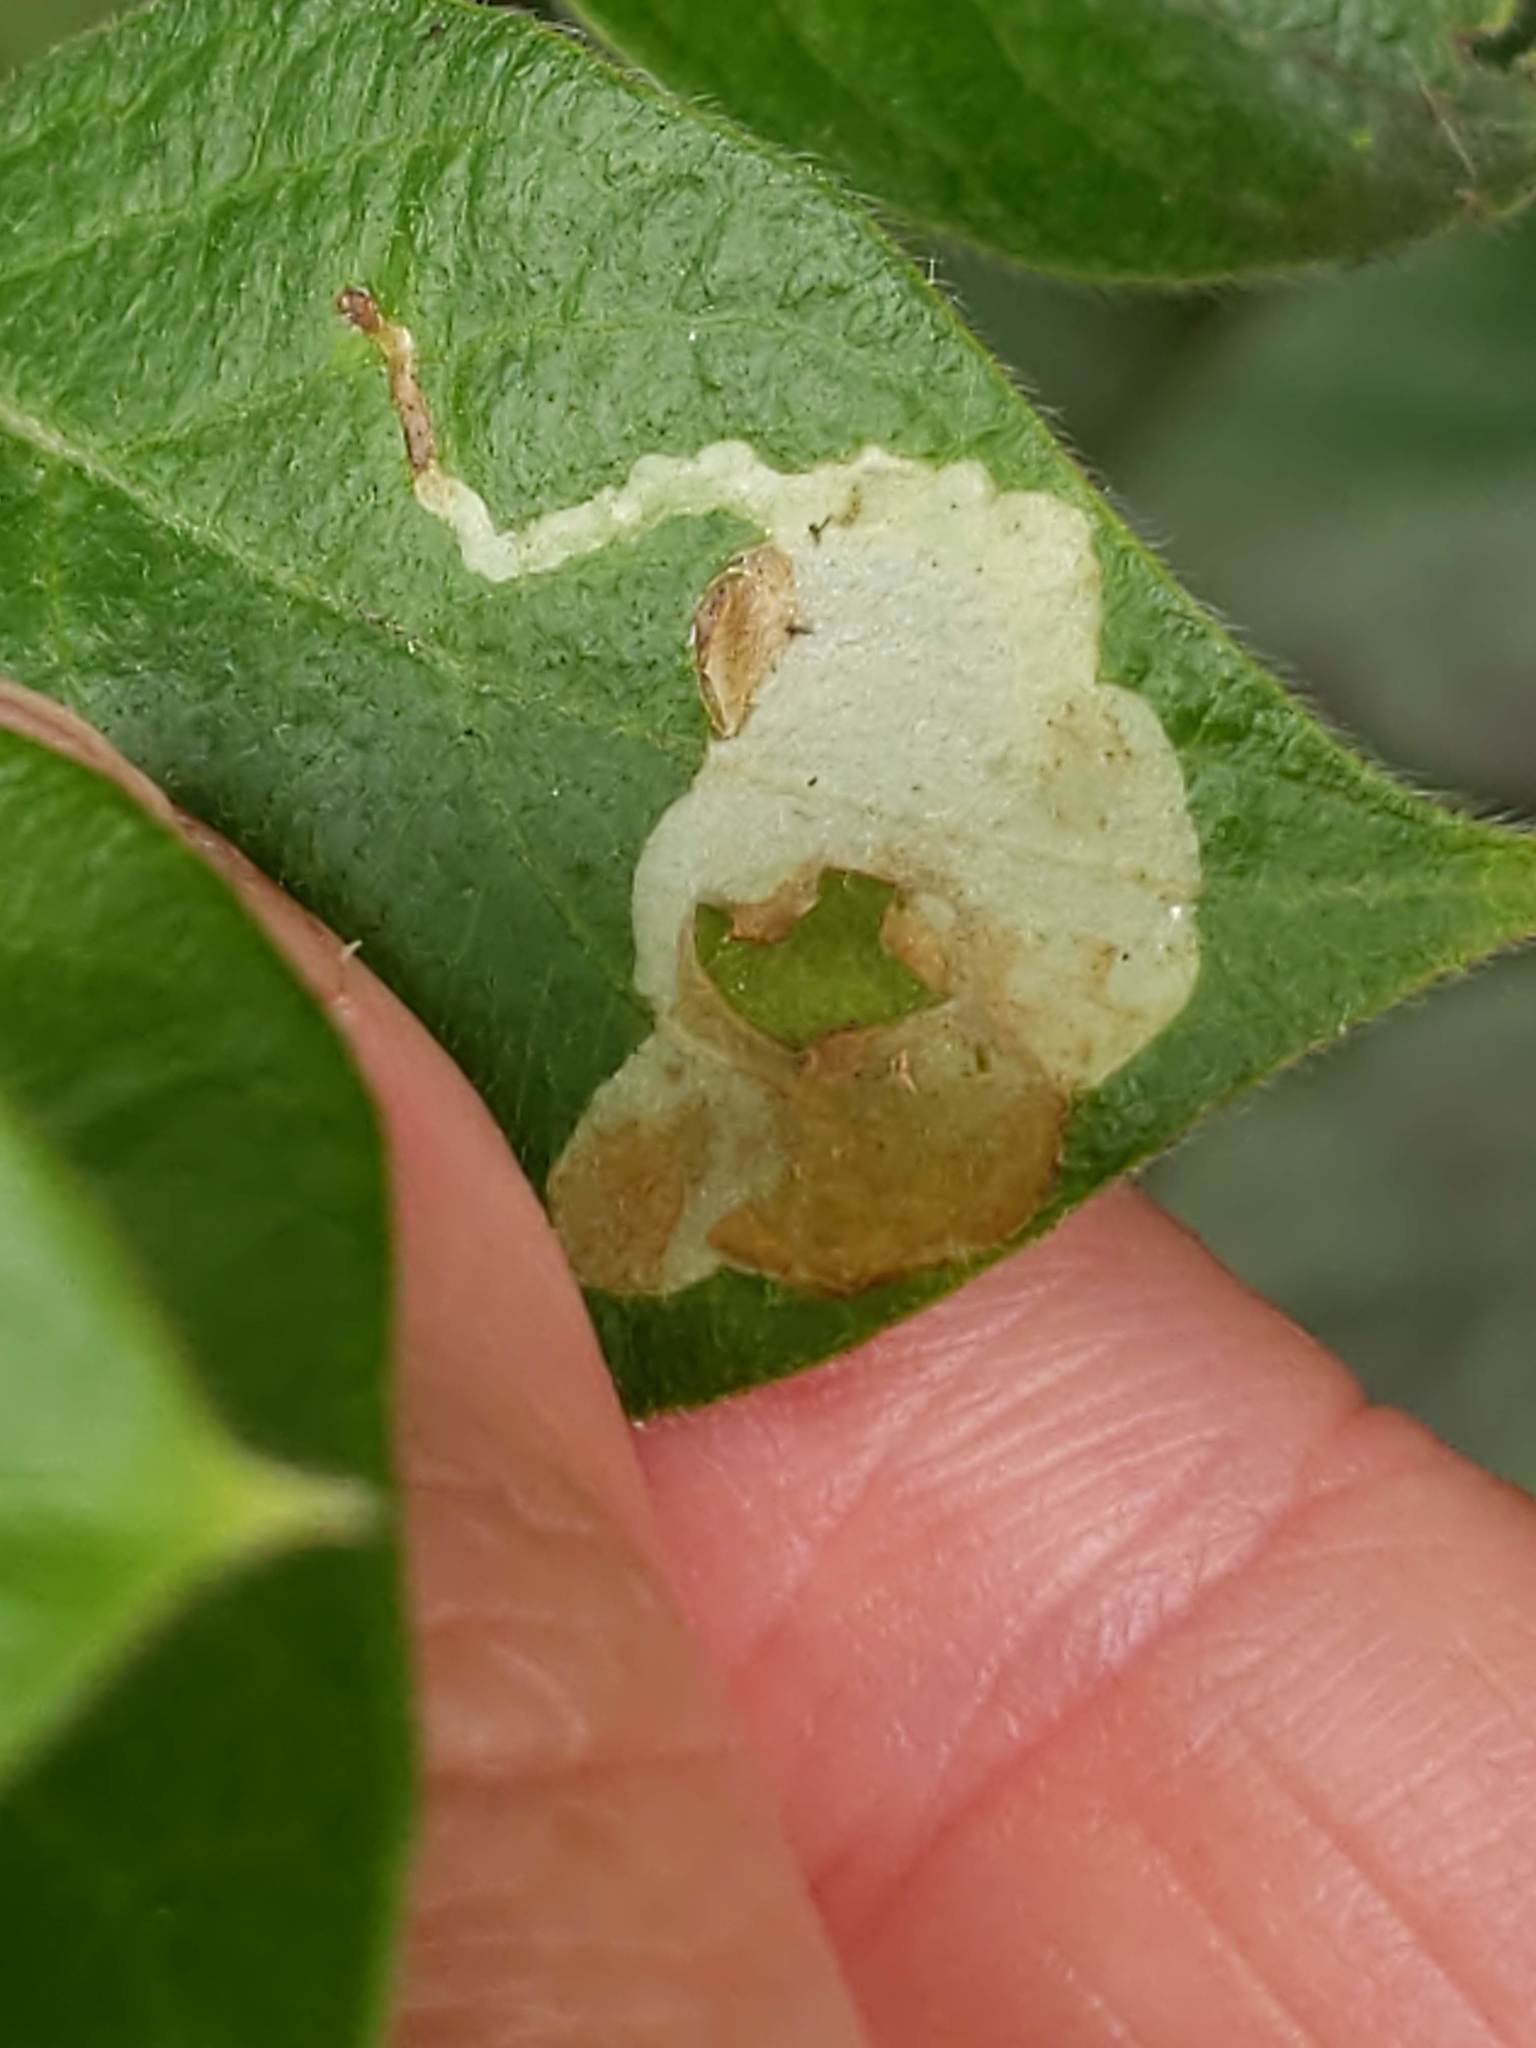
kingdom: Animalia
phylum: Arthropoda
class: Insecta
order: Diptera
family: Agromyzidae
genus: Aulagromyza
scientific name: Aulagromyza
